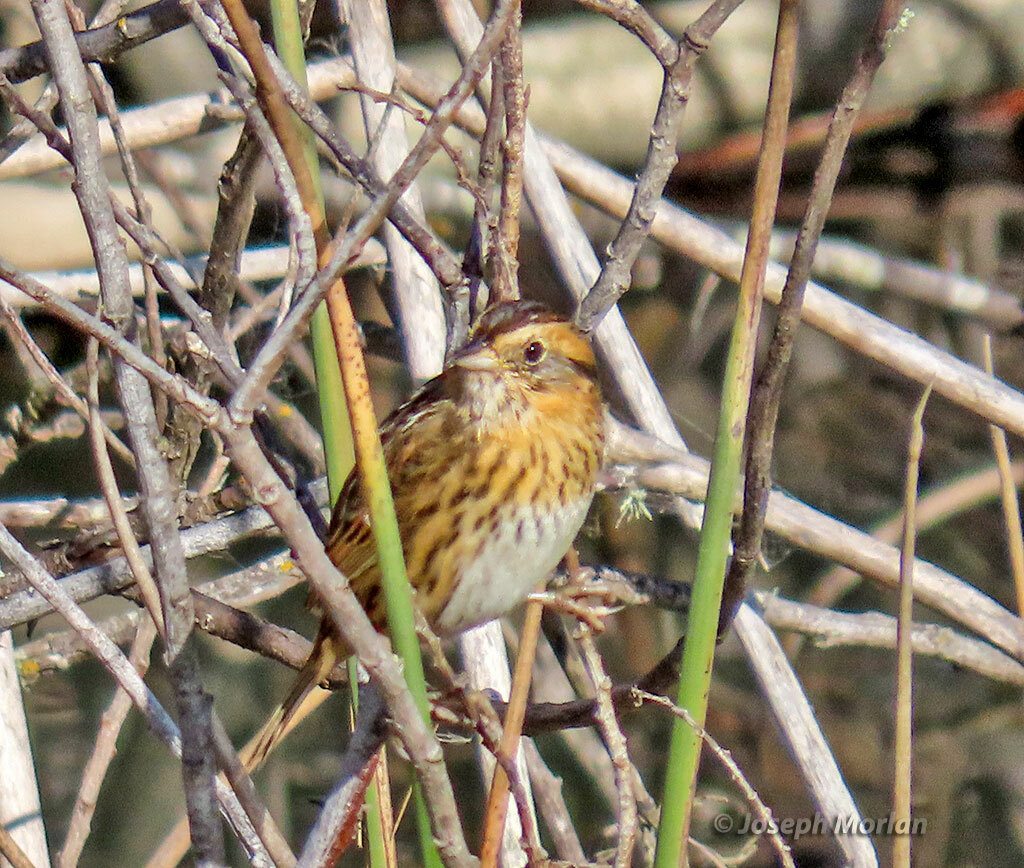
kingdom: Animalia
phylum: Chordata
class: Aves
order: Passeriformes
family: Passerellidae
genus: Ammospiza
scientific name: Ammospiza nelsoni
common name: Nelson's sparrow
